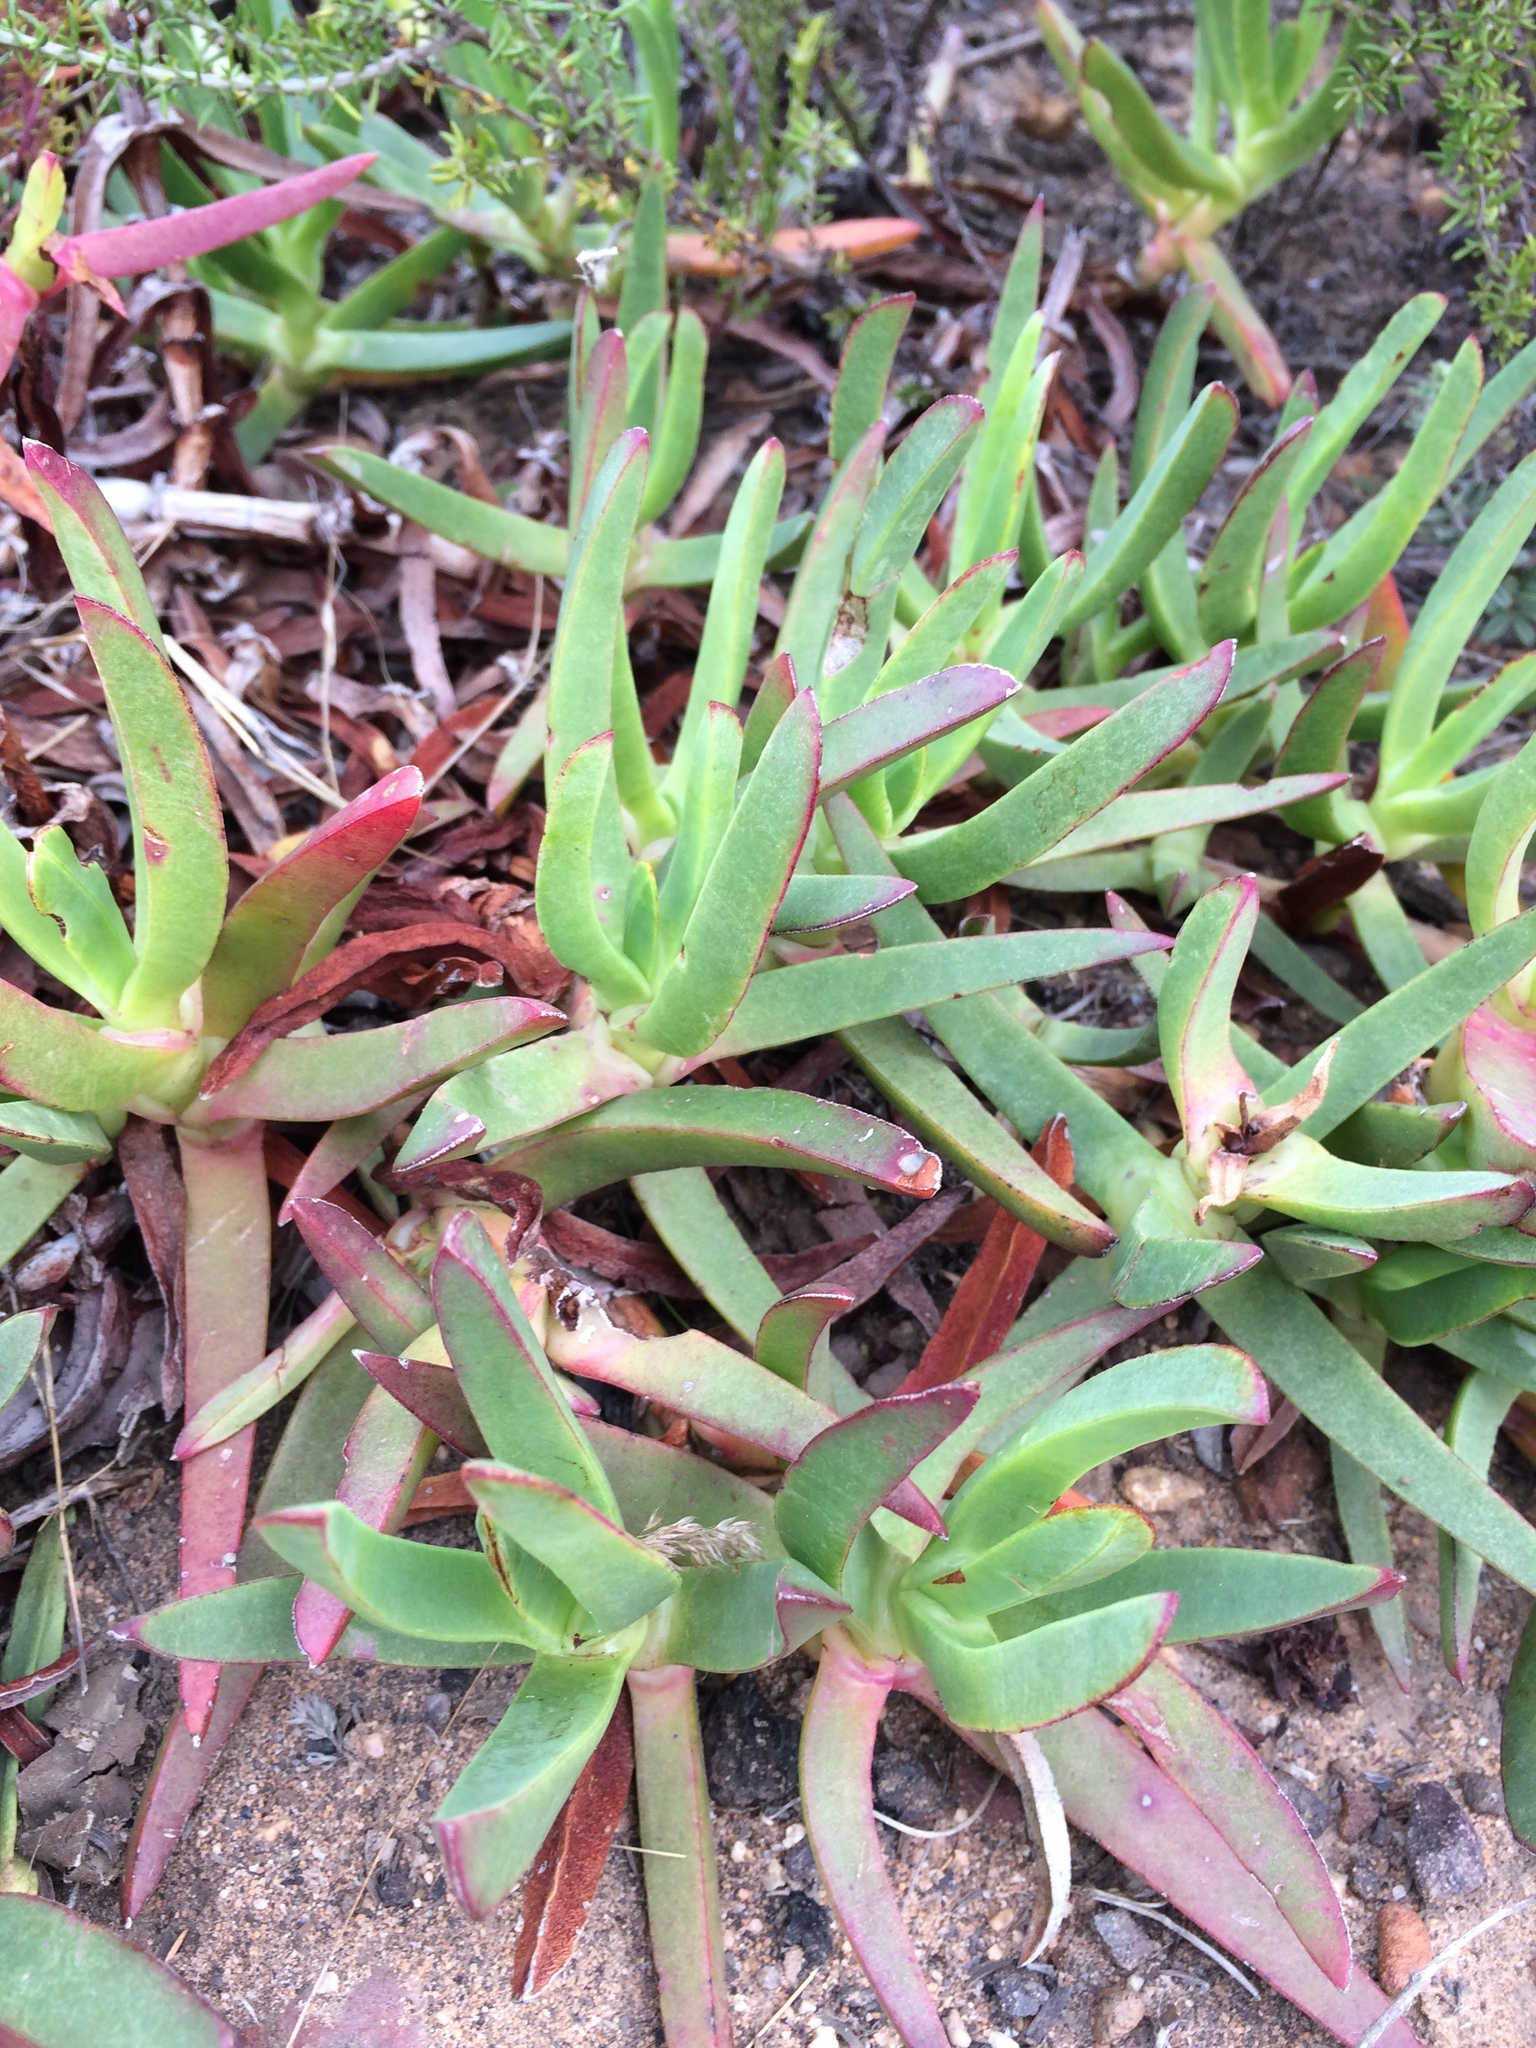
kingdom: Plantae
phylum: Tracheophyta
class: Magnoliopsida
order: Caryophyllales
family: Aizoaceae
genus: Carpobrotus
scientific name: Carpobrotus edulis
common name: Hottentot-fig
